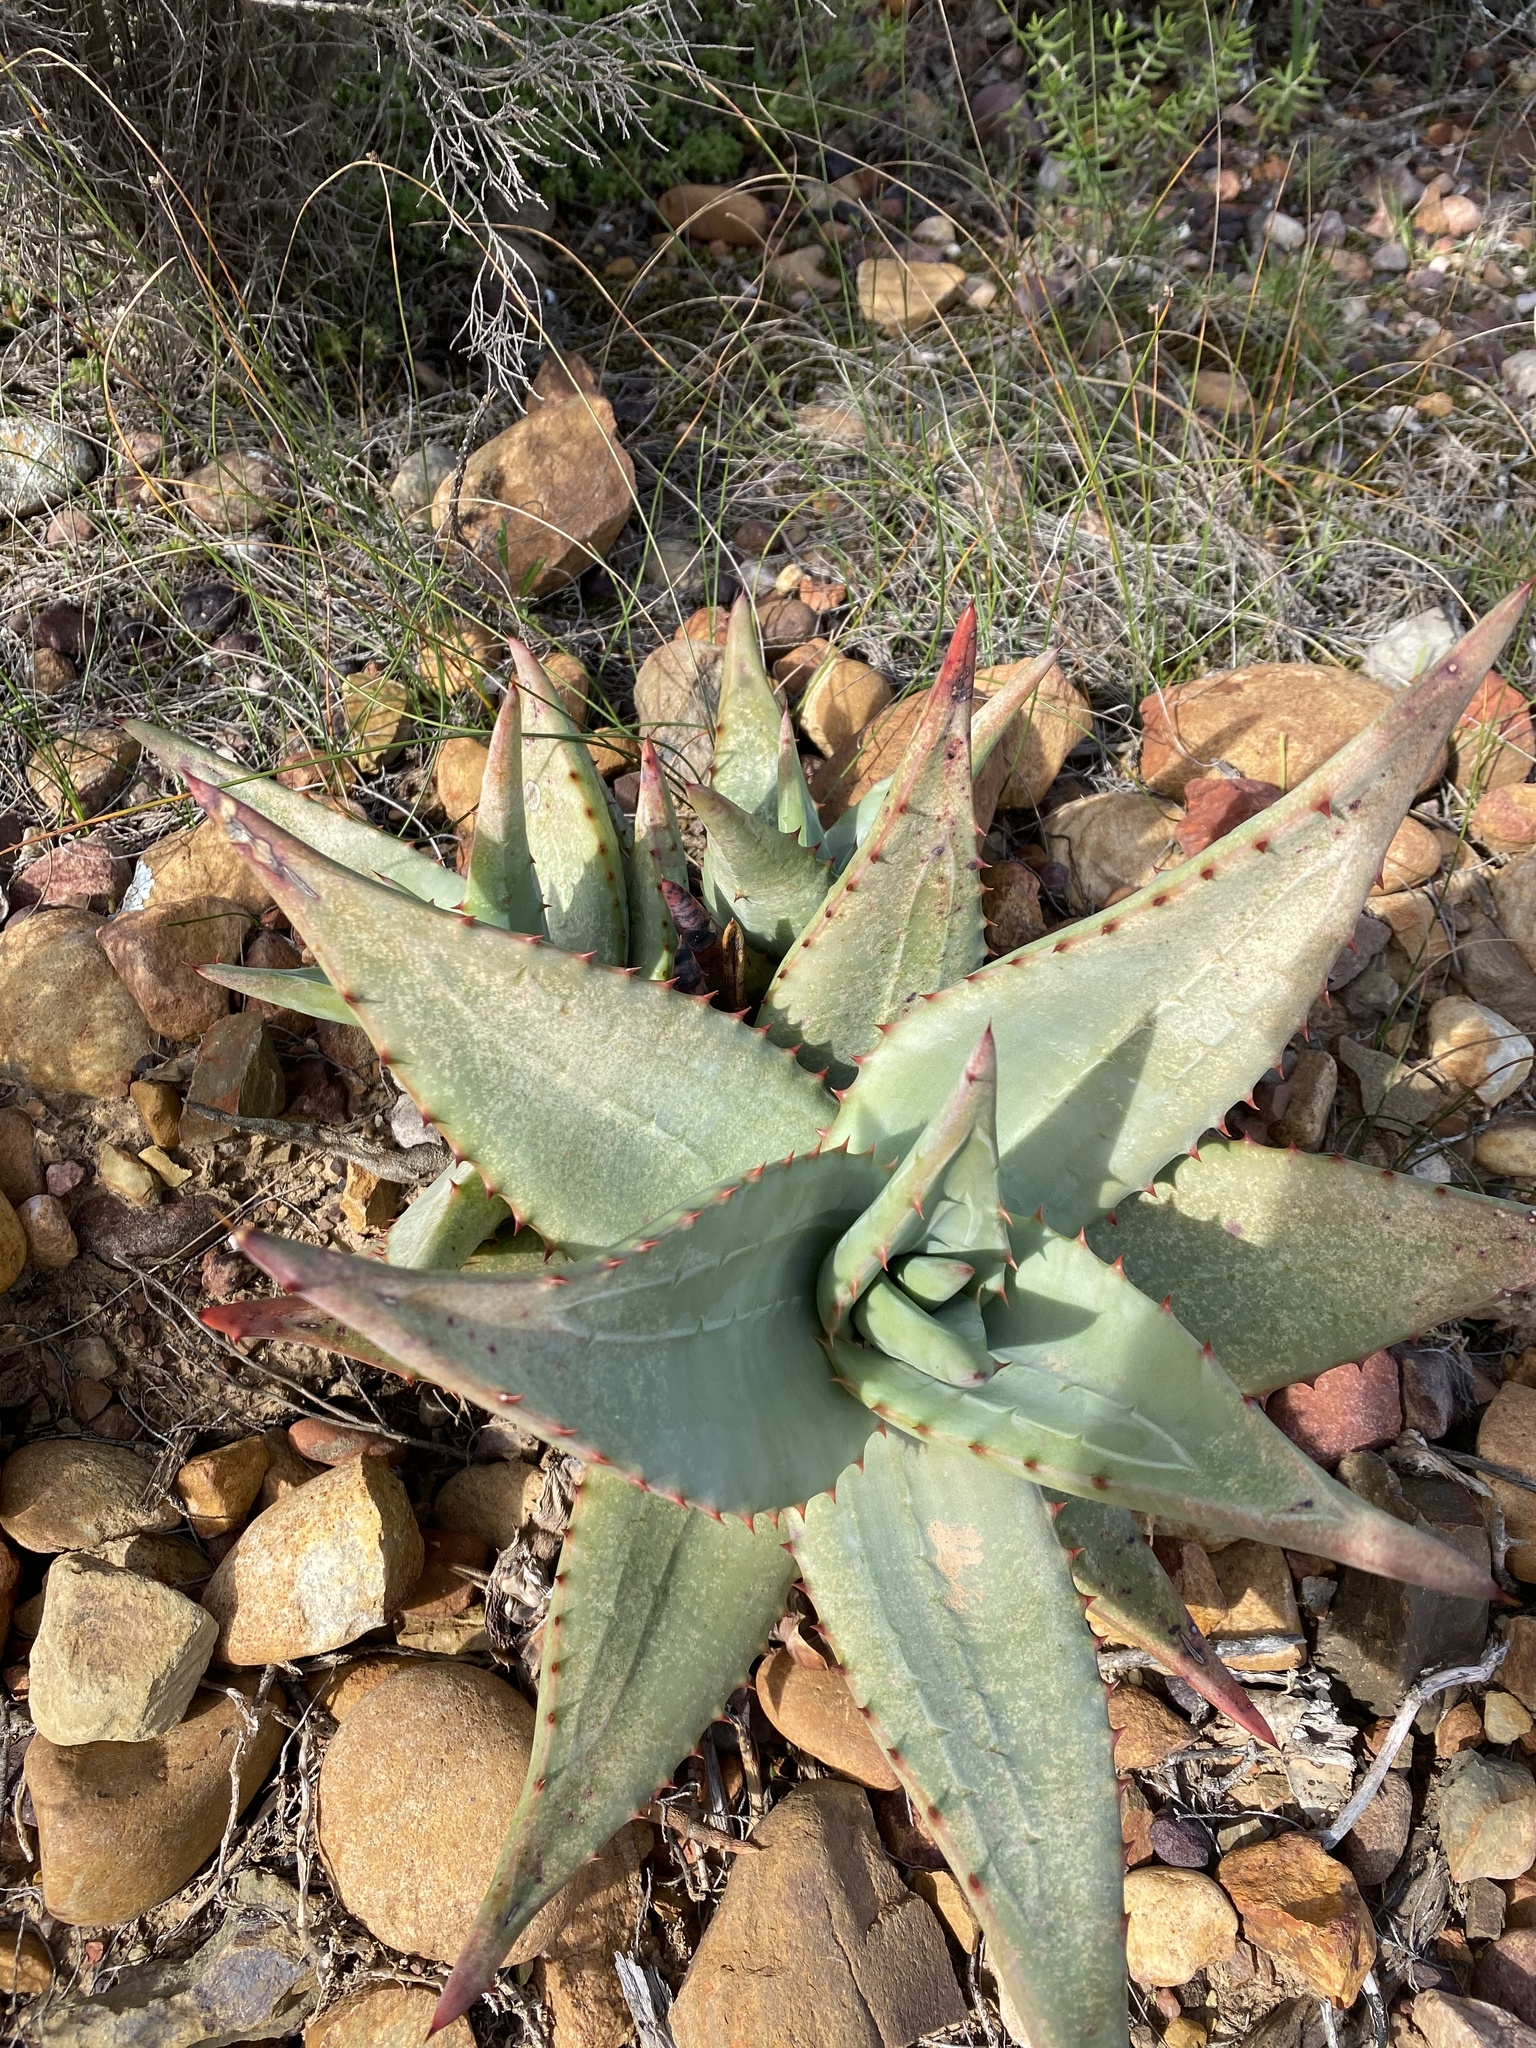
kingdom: Plantae
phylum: Tracheophyta
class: Liliopsida
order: Asparagales
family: Asphodelaceae
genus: Aloe
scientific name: Aloe ferox
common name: Bitter aloe
